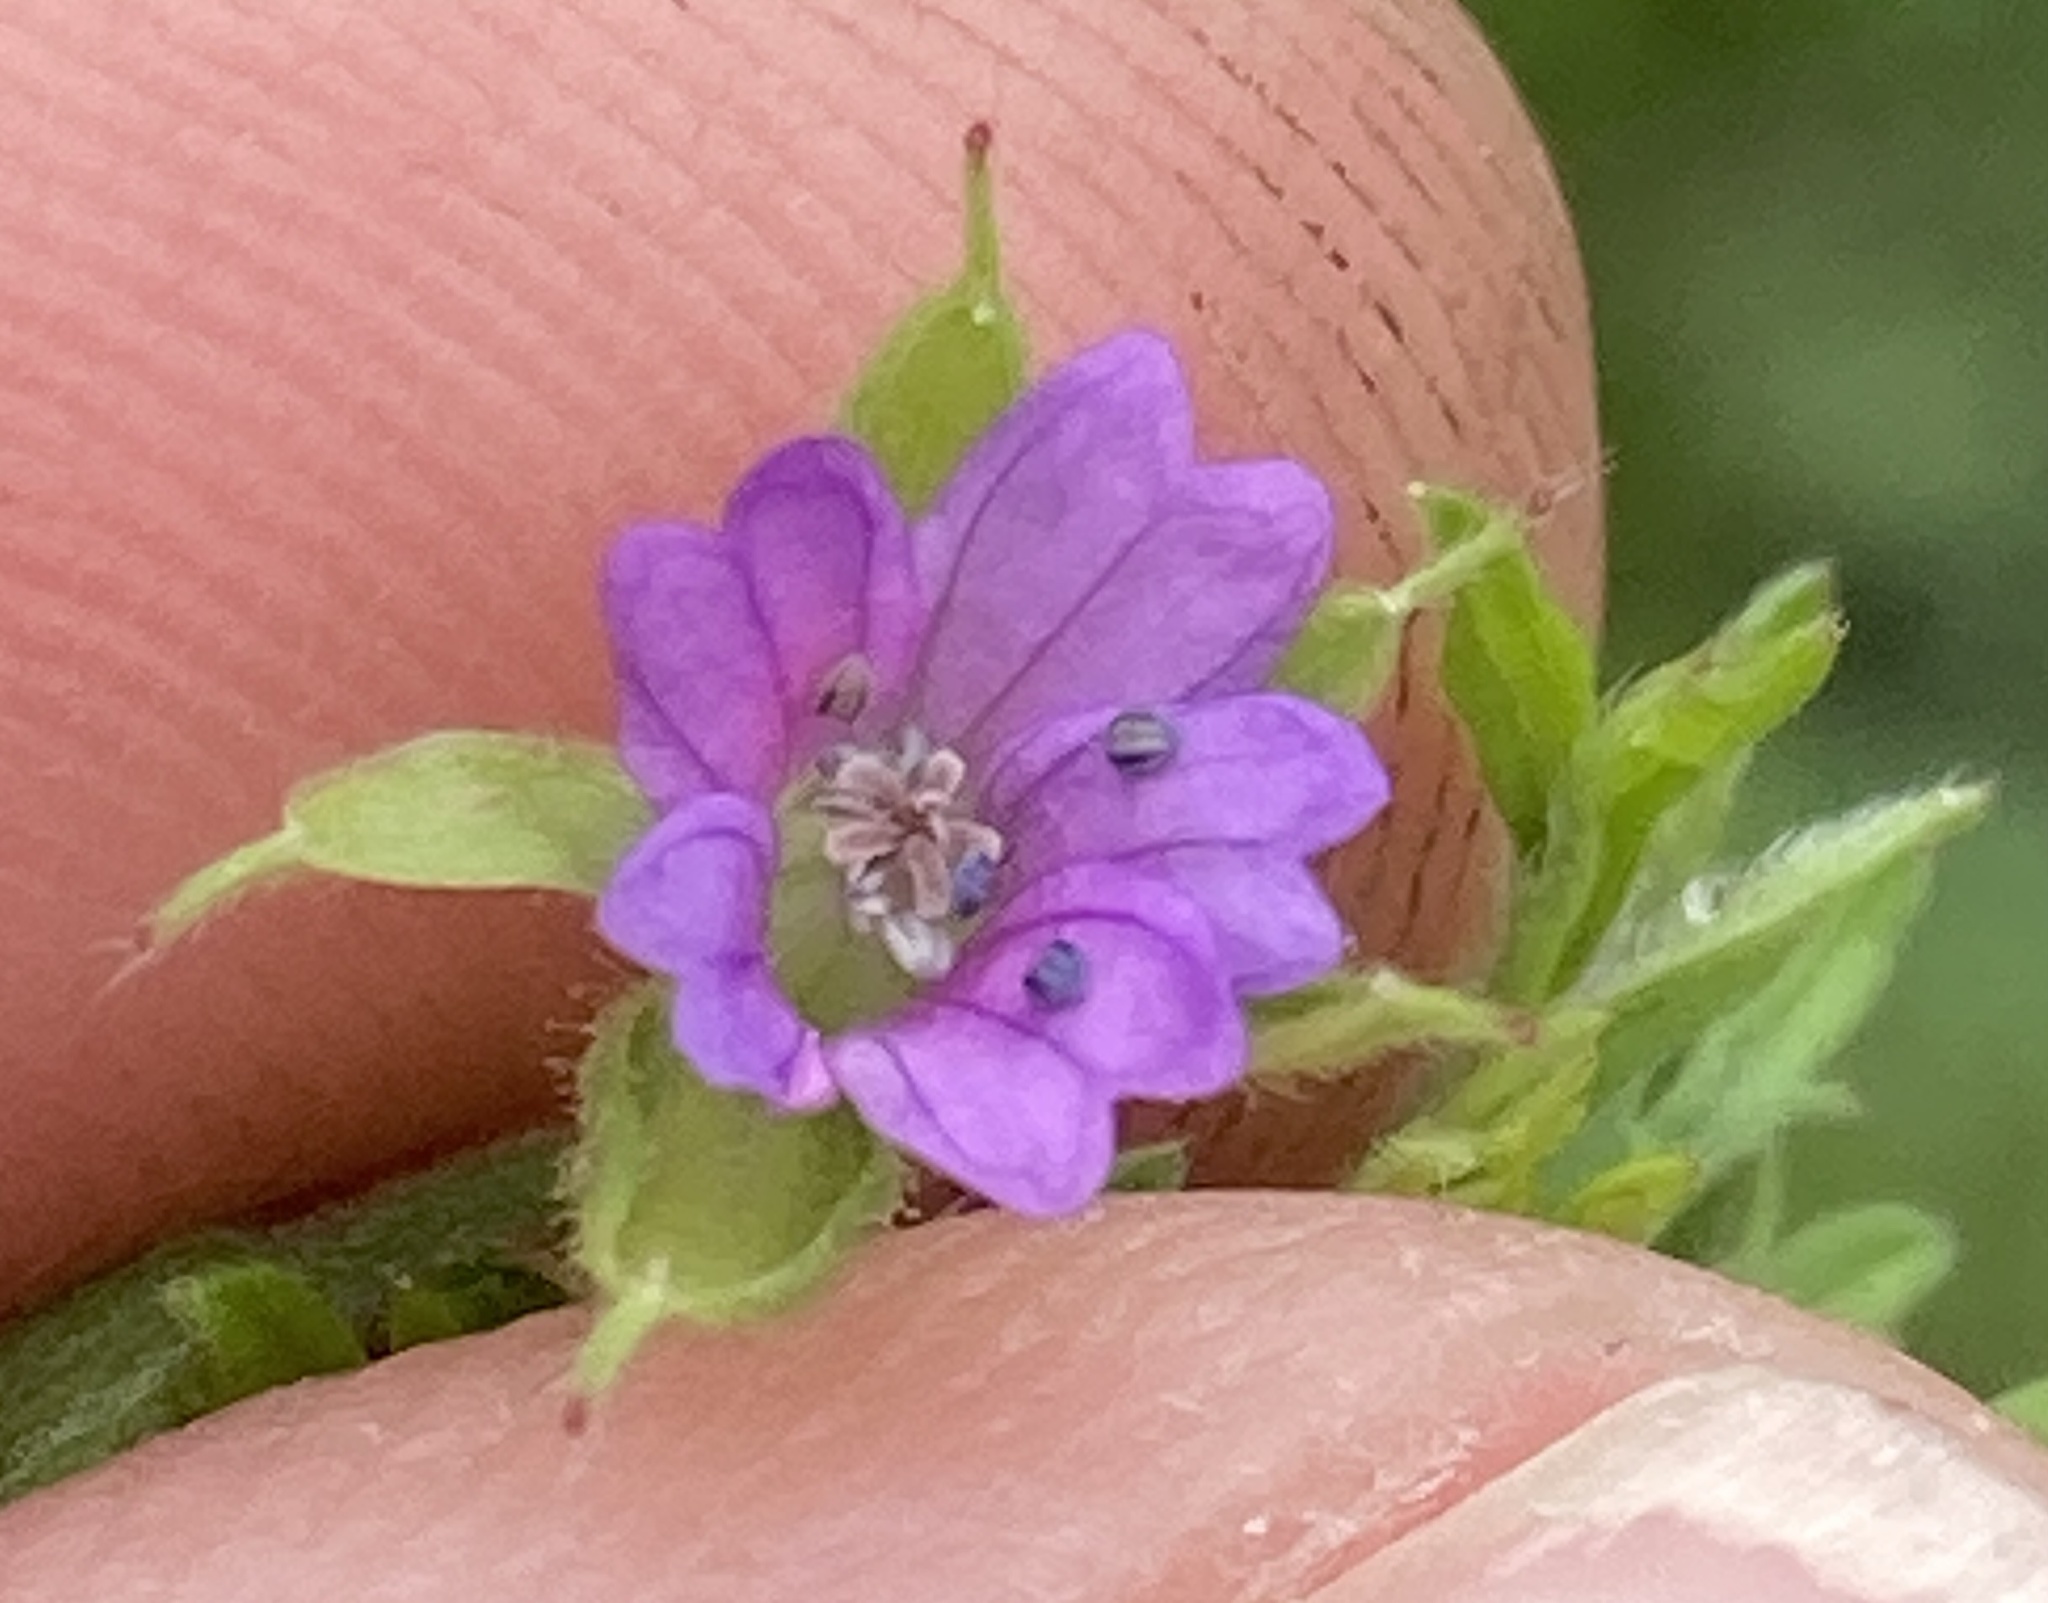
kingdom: Plantae
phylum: Tracheophyta
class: Magnoliopsida
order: Geraniales
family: Geraniaceae
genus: Geranium
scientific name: Geranium dissectum
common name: Cut-leaved crane's-bill
